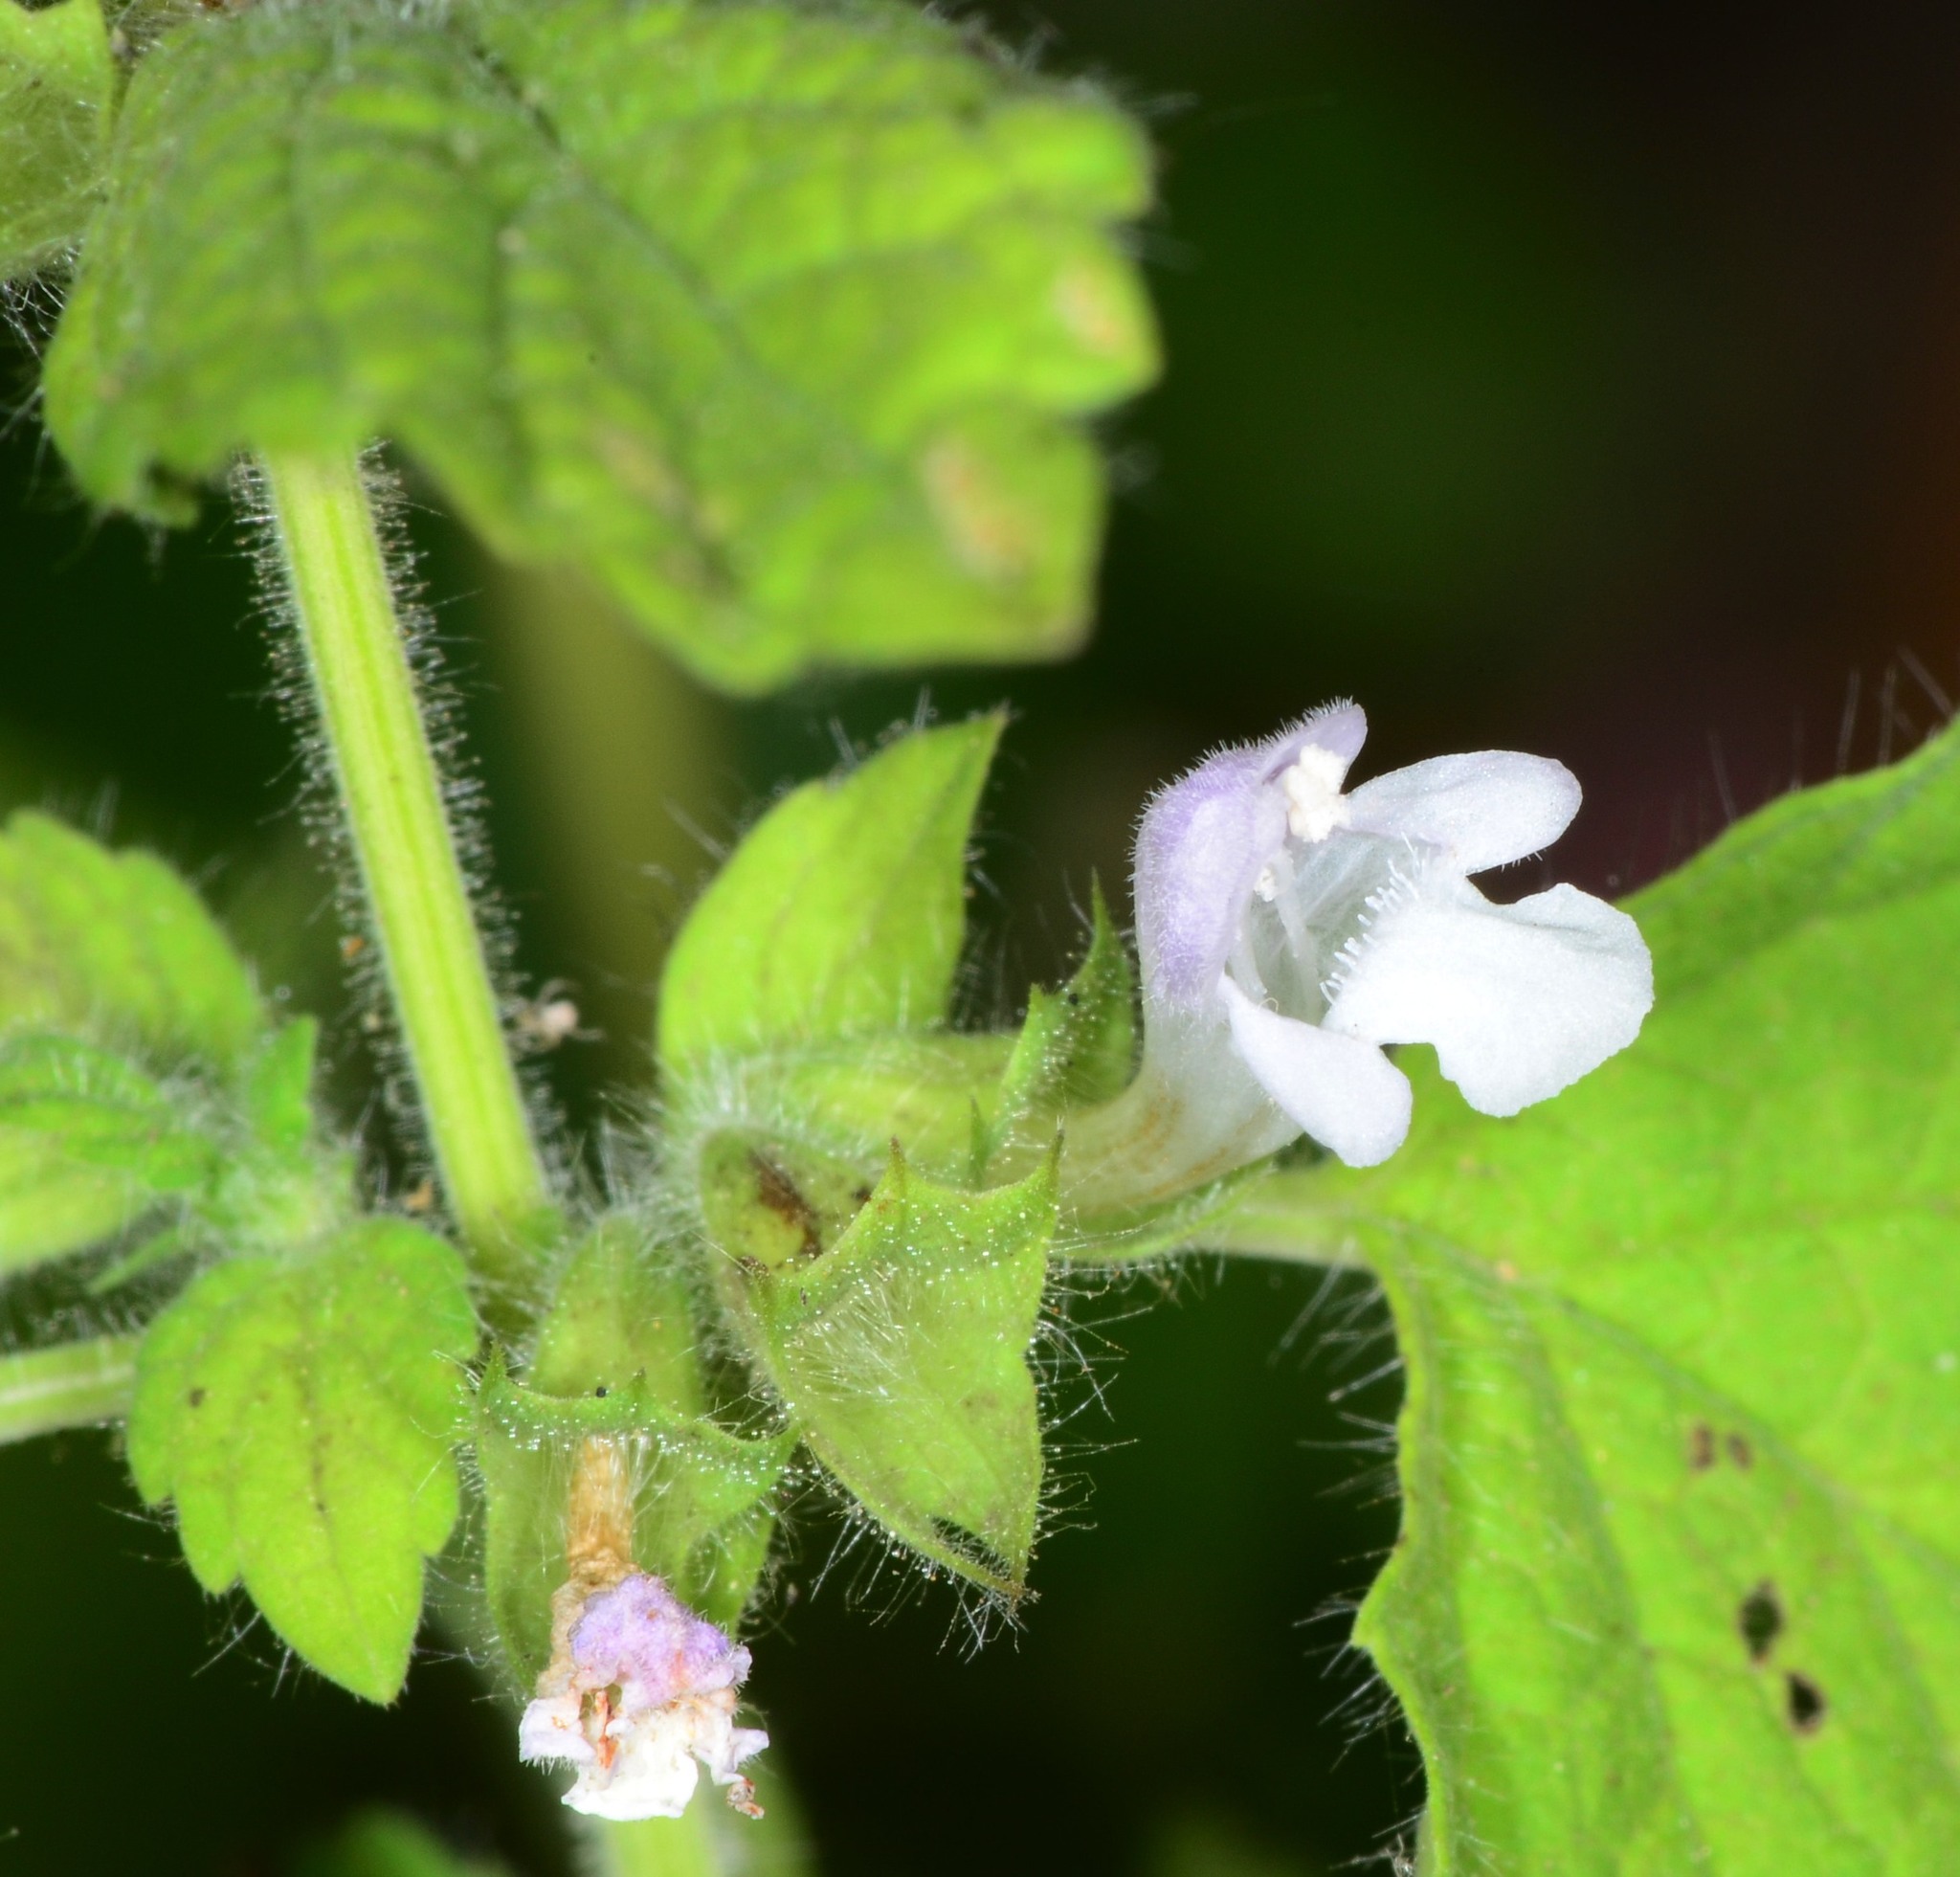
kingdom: Plantae
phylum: Tracheophyta
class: Magnoliopsida
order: Lamiales
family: Lamiaceae
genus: Melissa
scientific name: Melissa officinalis
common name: Balm
